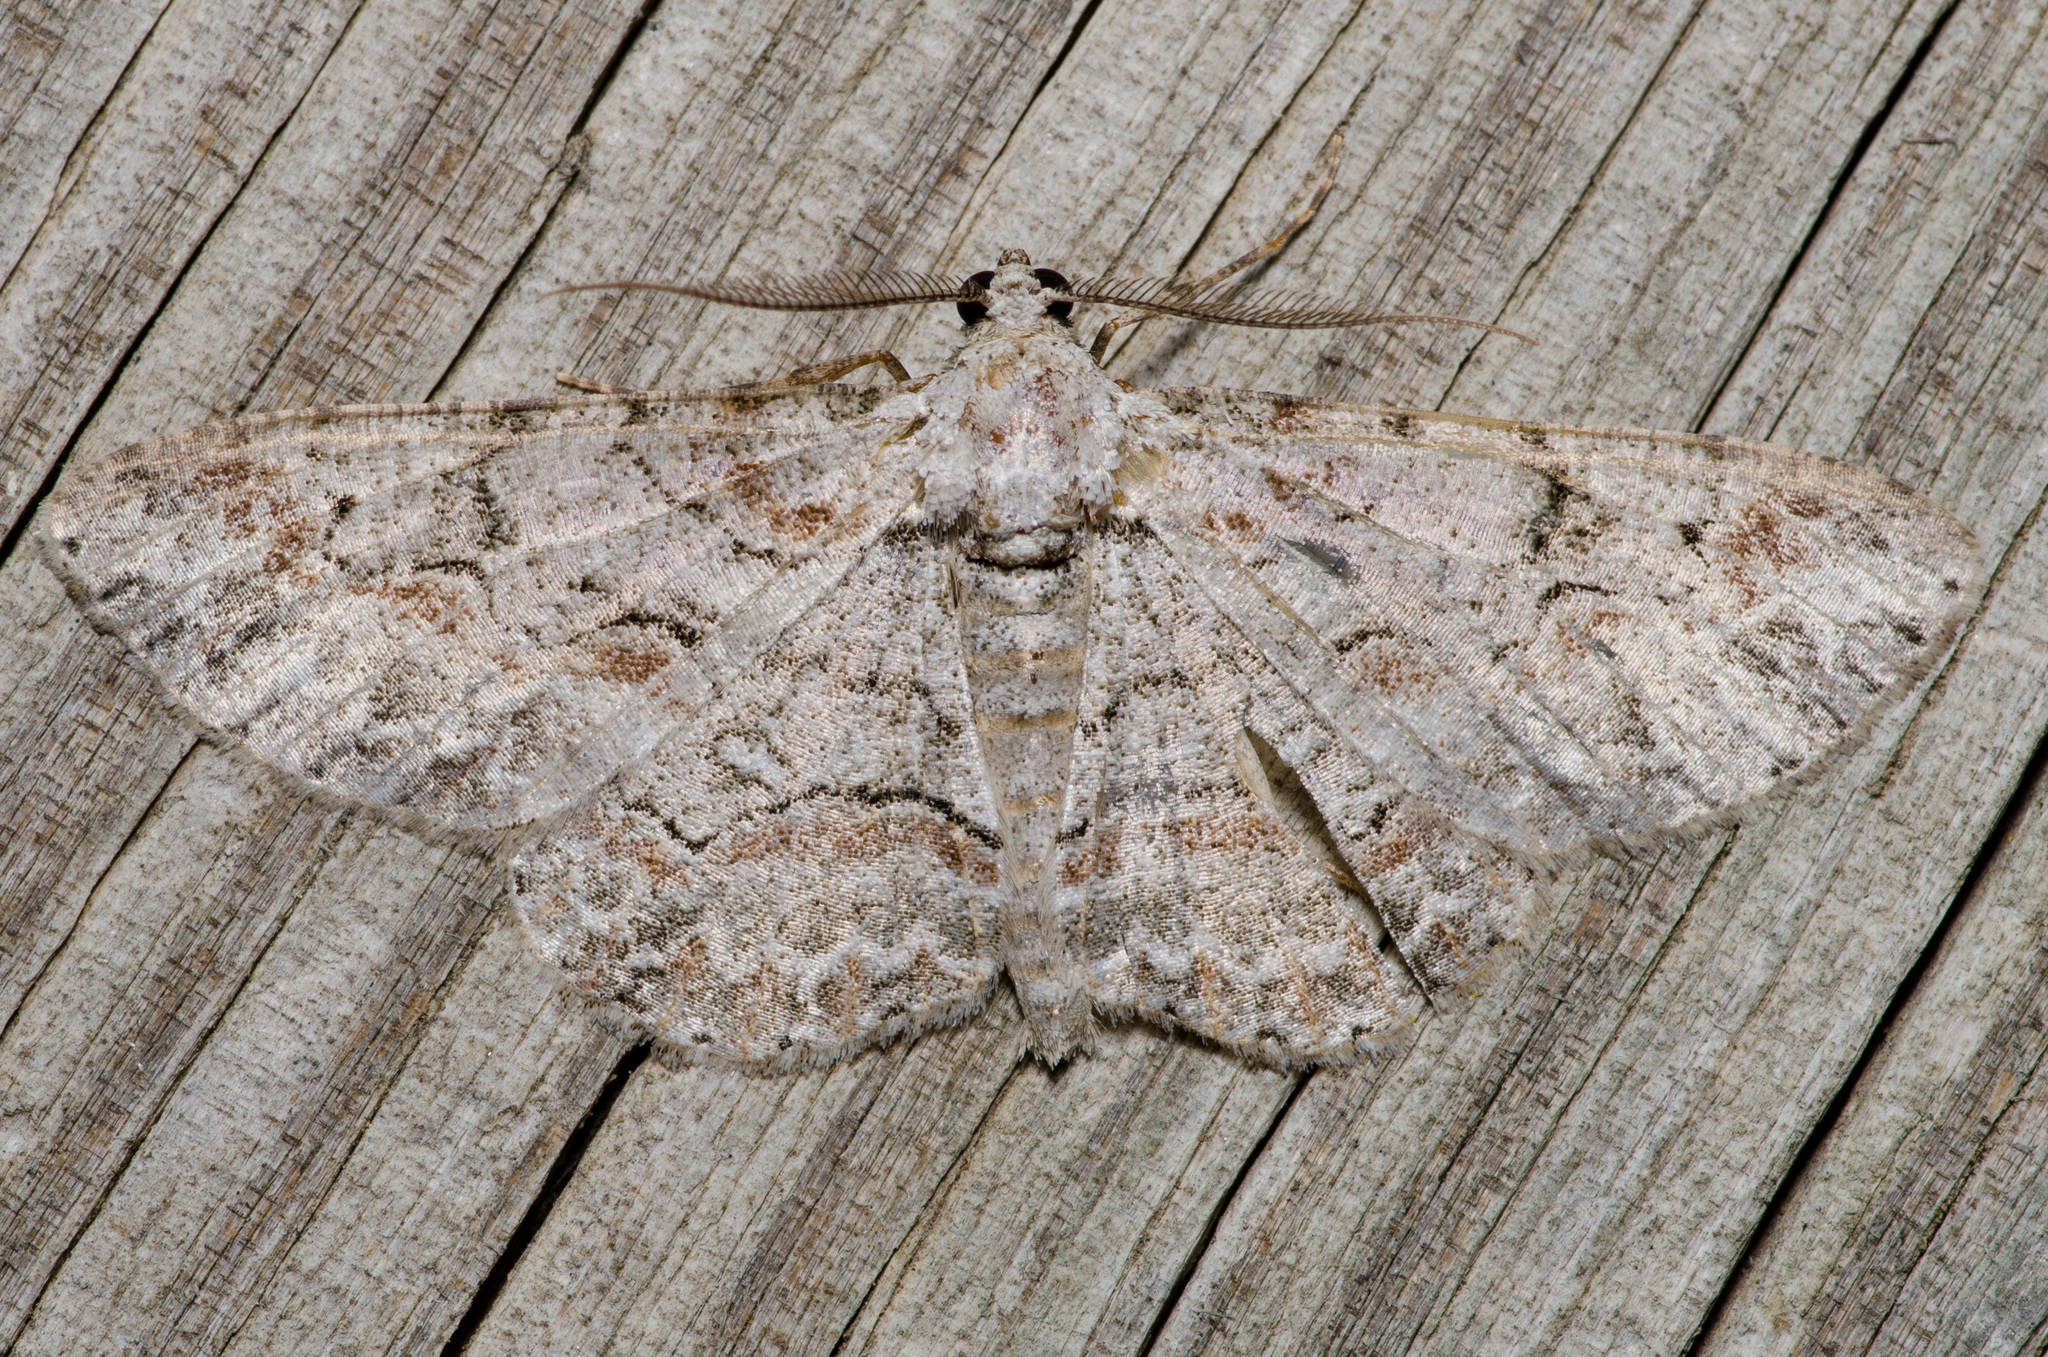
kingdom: Animalia
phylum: Arthropoda
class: Insecta
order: Lepidoptera
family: Geometridae
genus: Iridopsis
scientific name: Iridopsis defectaria
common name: Brown-shaded gray
